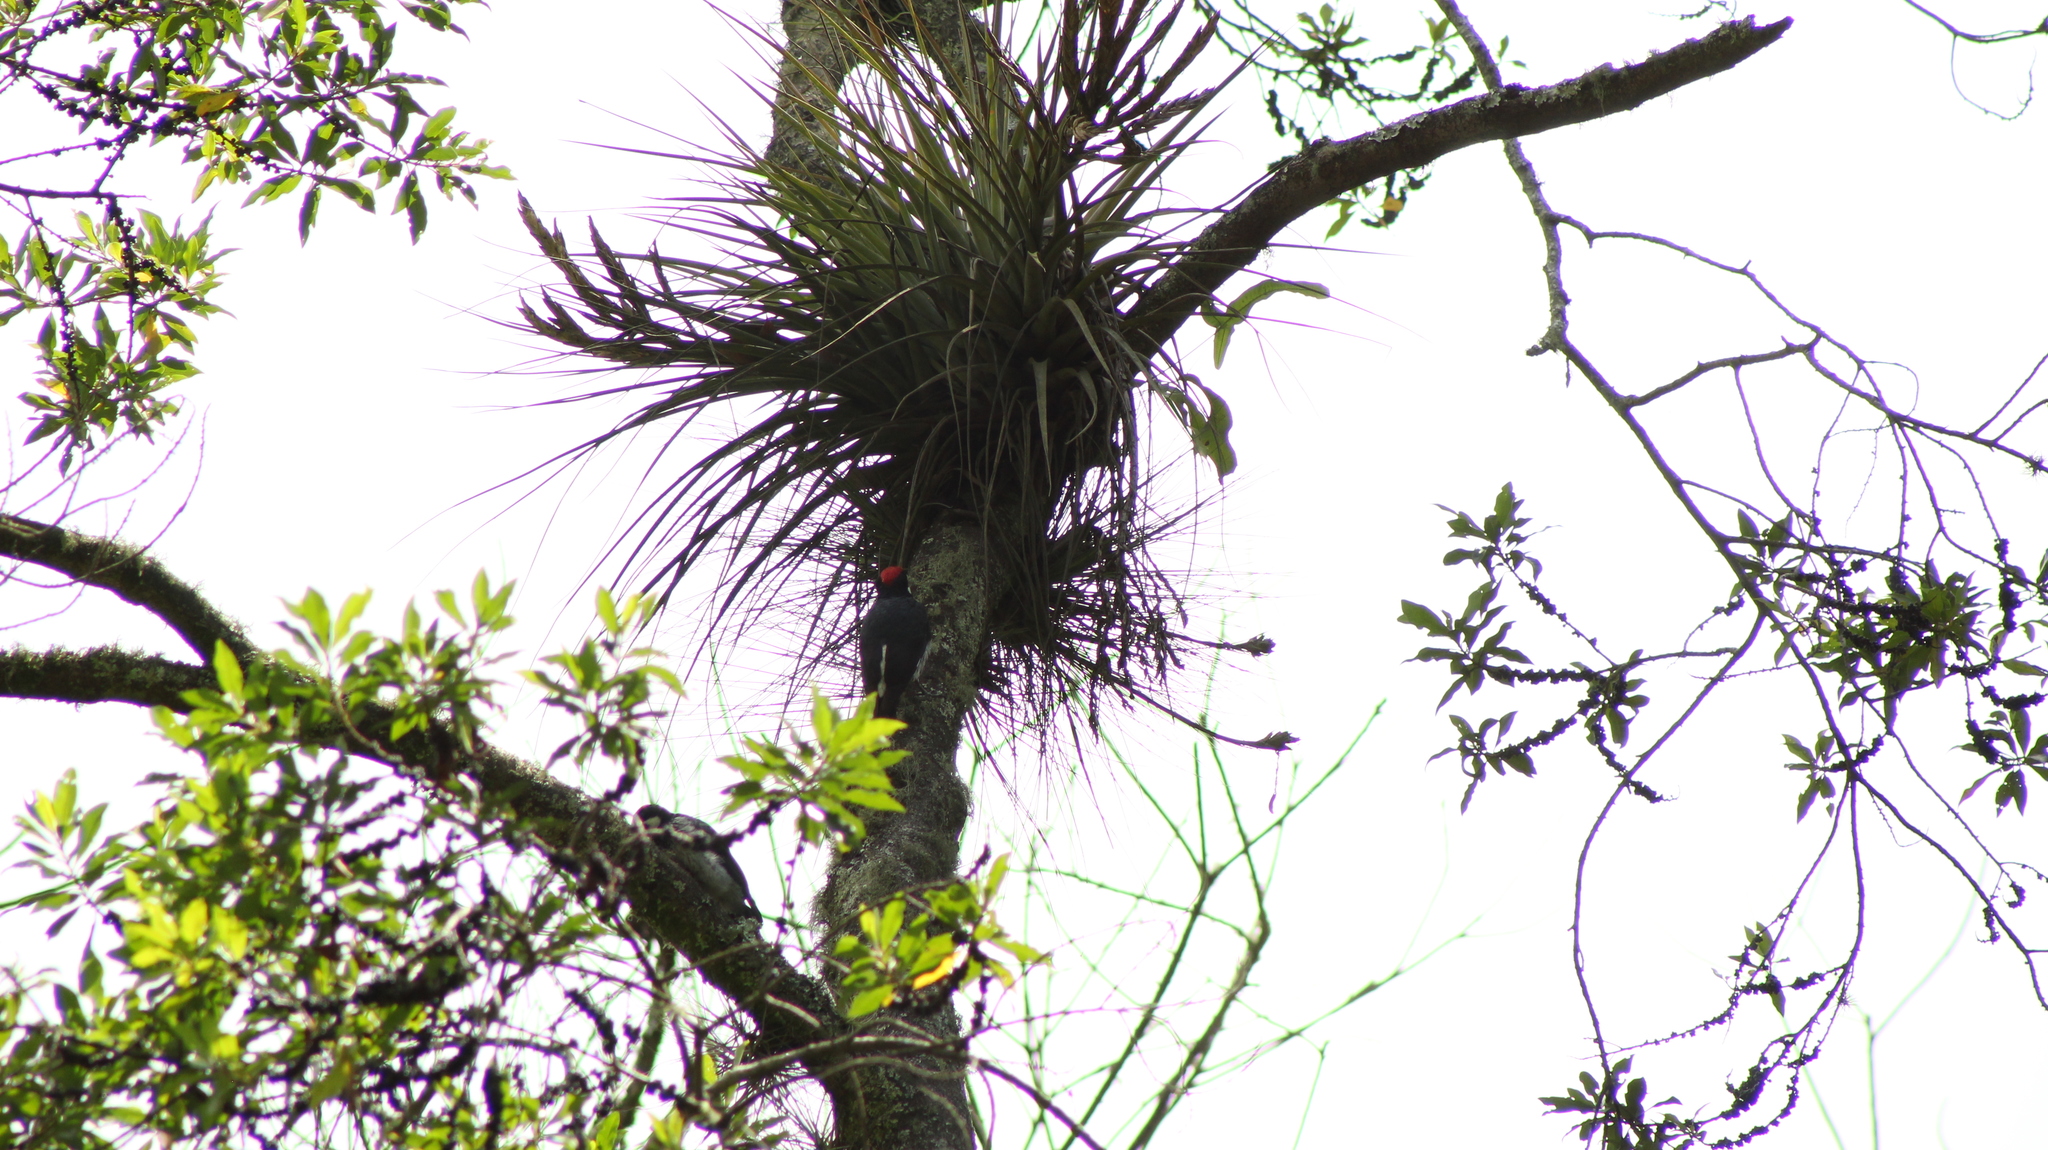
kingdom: Animalia
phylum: Chordata
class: Aves
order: Piciformes
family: Picidae
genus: Melanerpes
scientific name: Melanerpes formicivorus
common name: Acorn woodpecker
